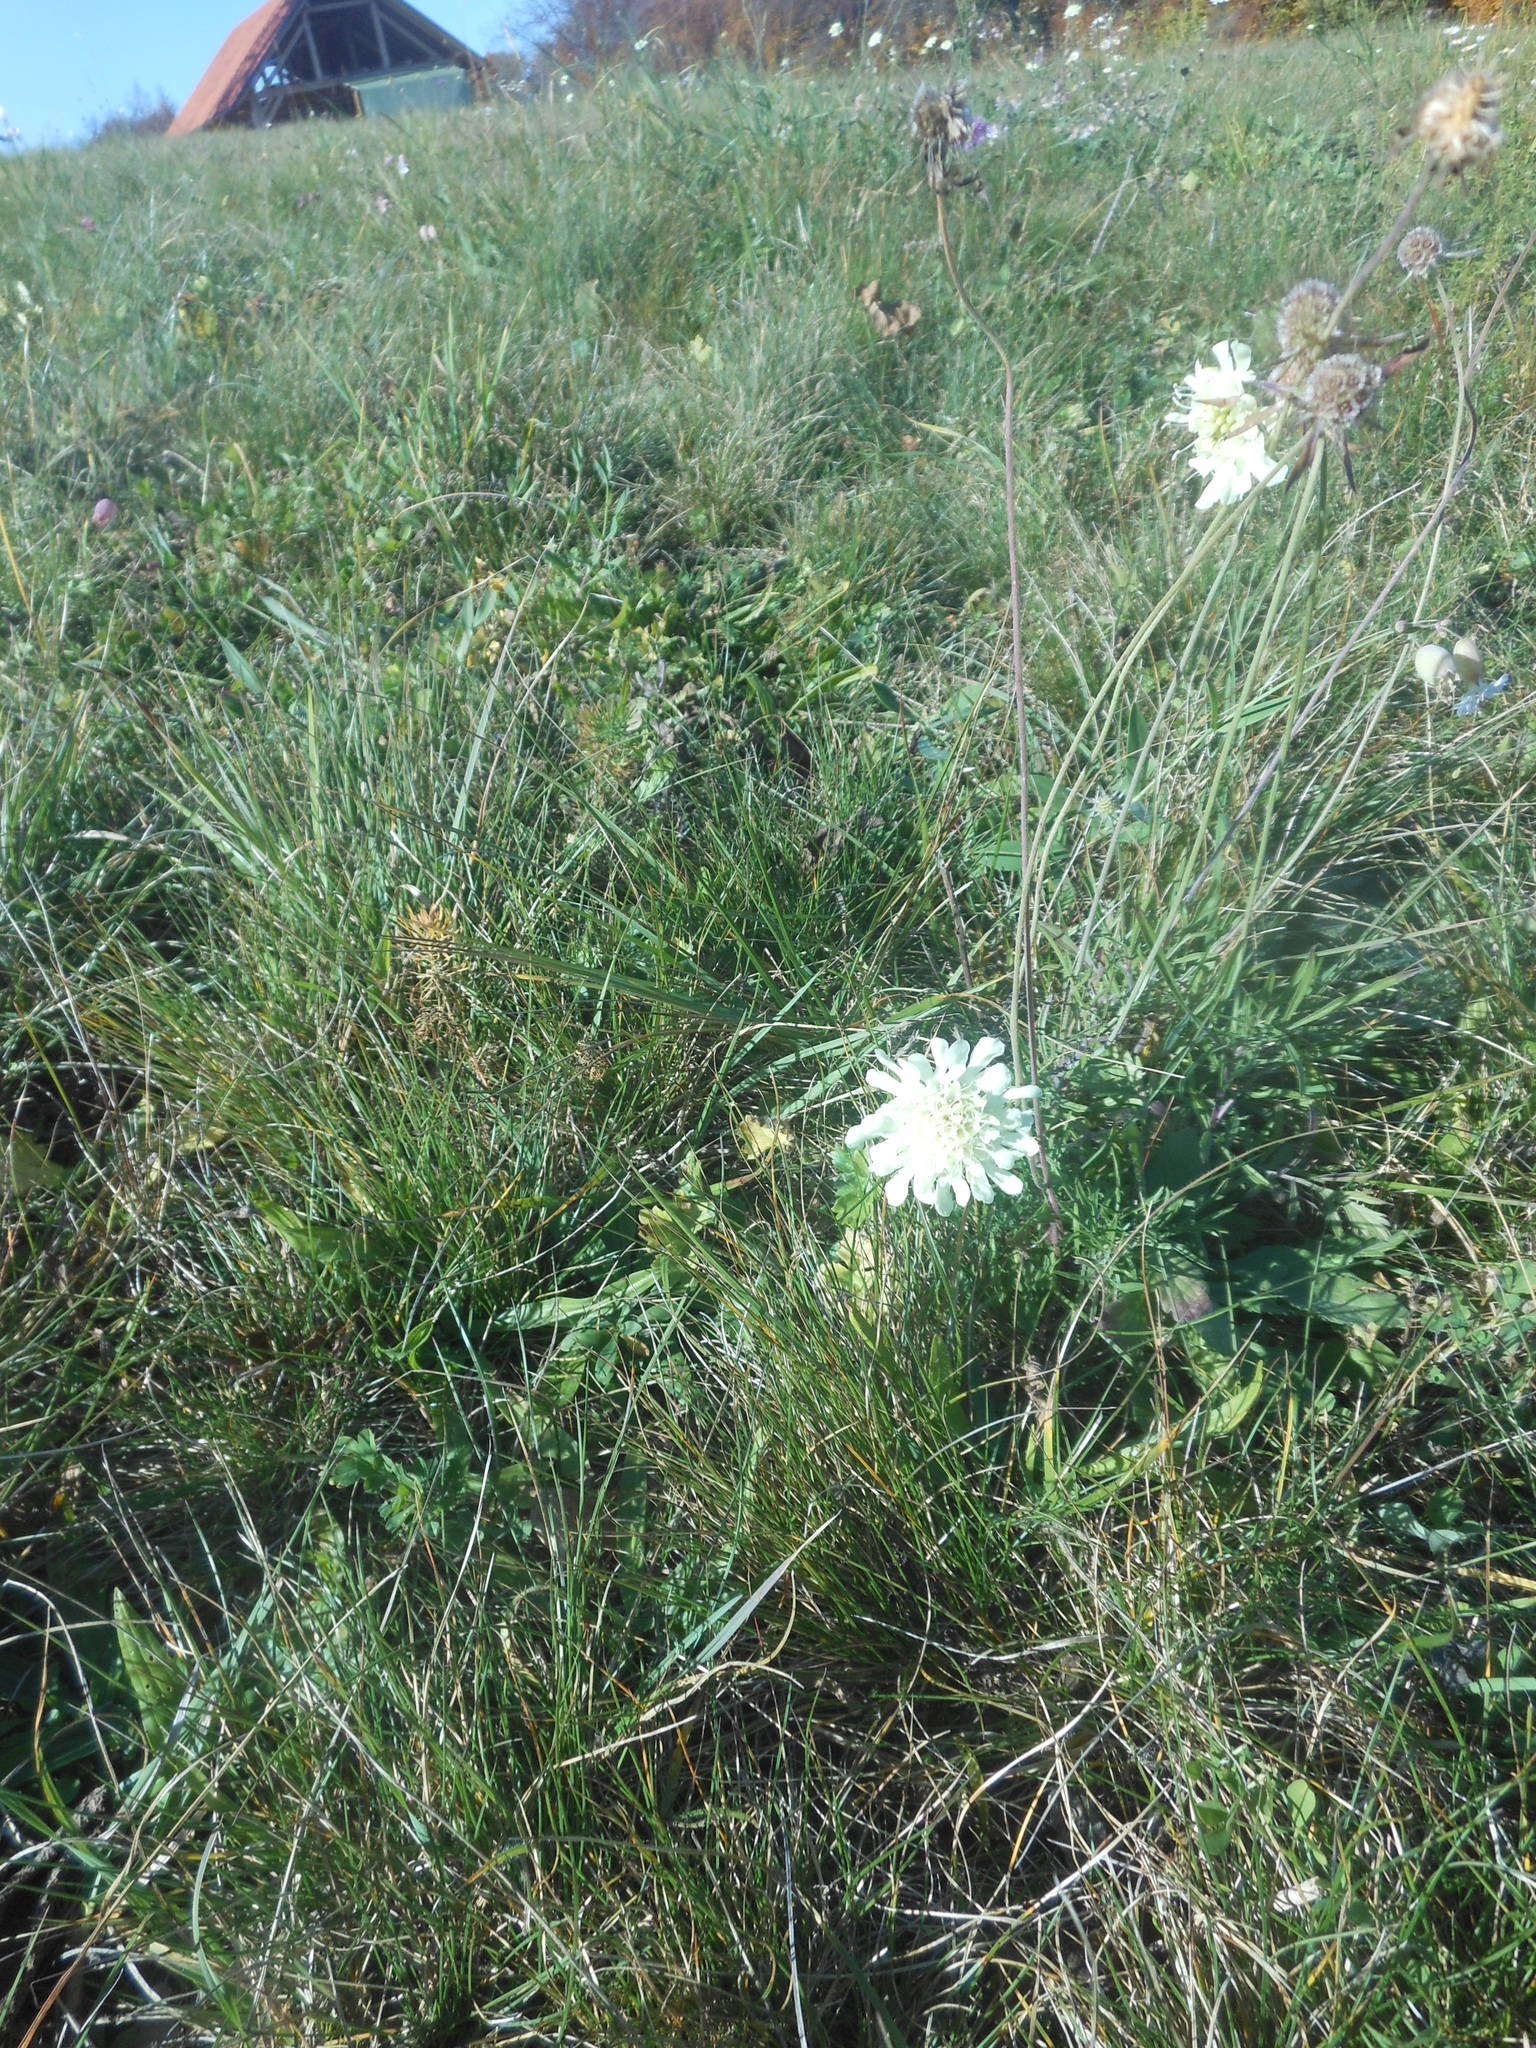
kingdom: Plantae
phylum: Tracheophyta
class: Magnoliopsida
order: Dipsacales
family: Caprifoliaceae
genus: Scabiosa
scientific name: Scabiosa ochroleuca
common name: Cream pincushions
